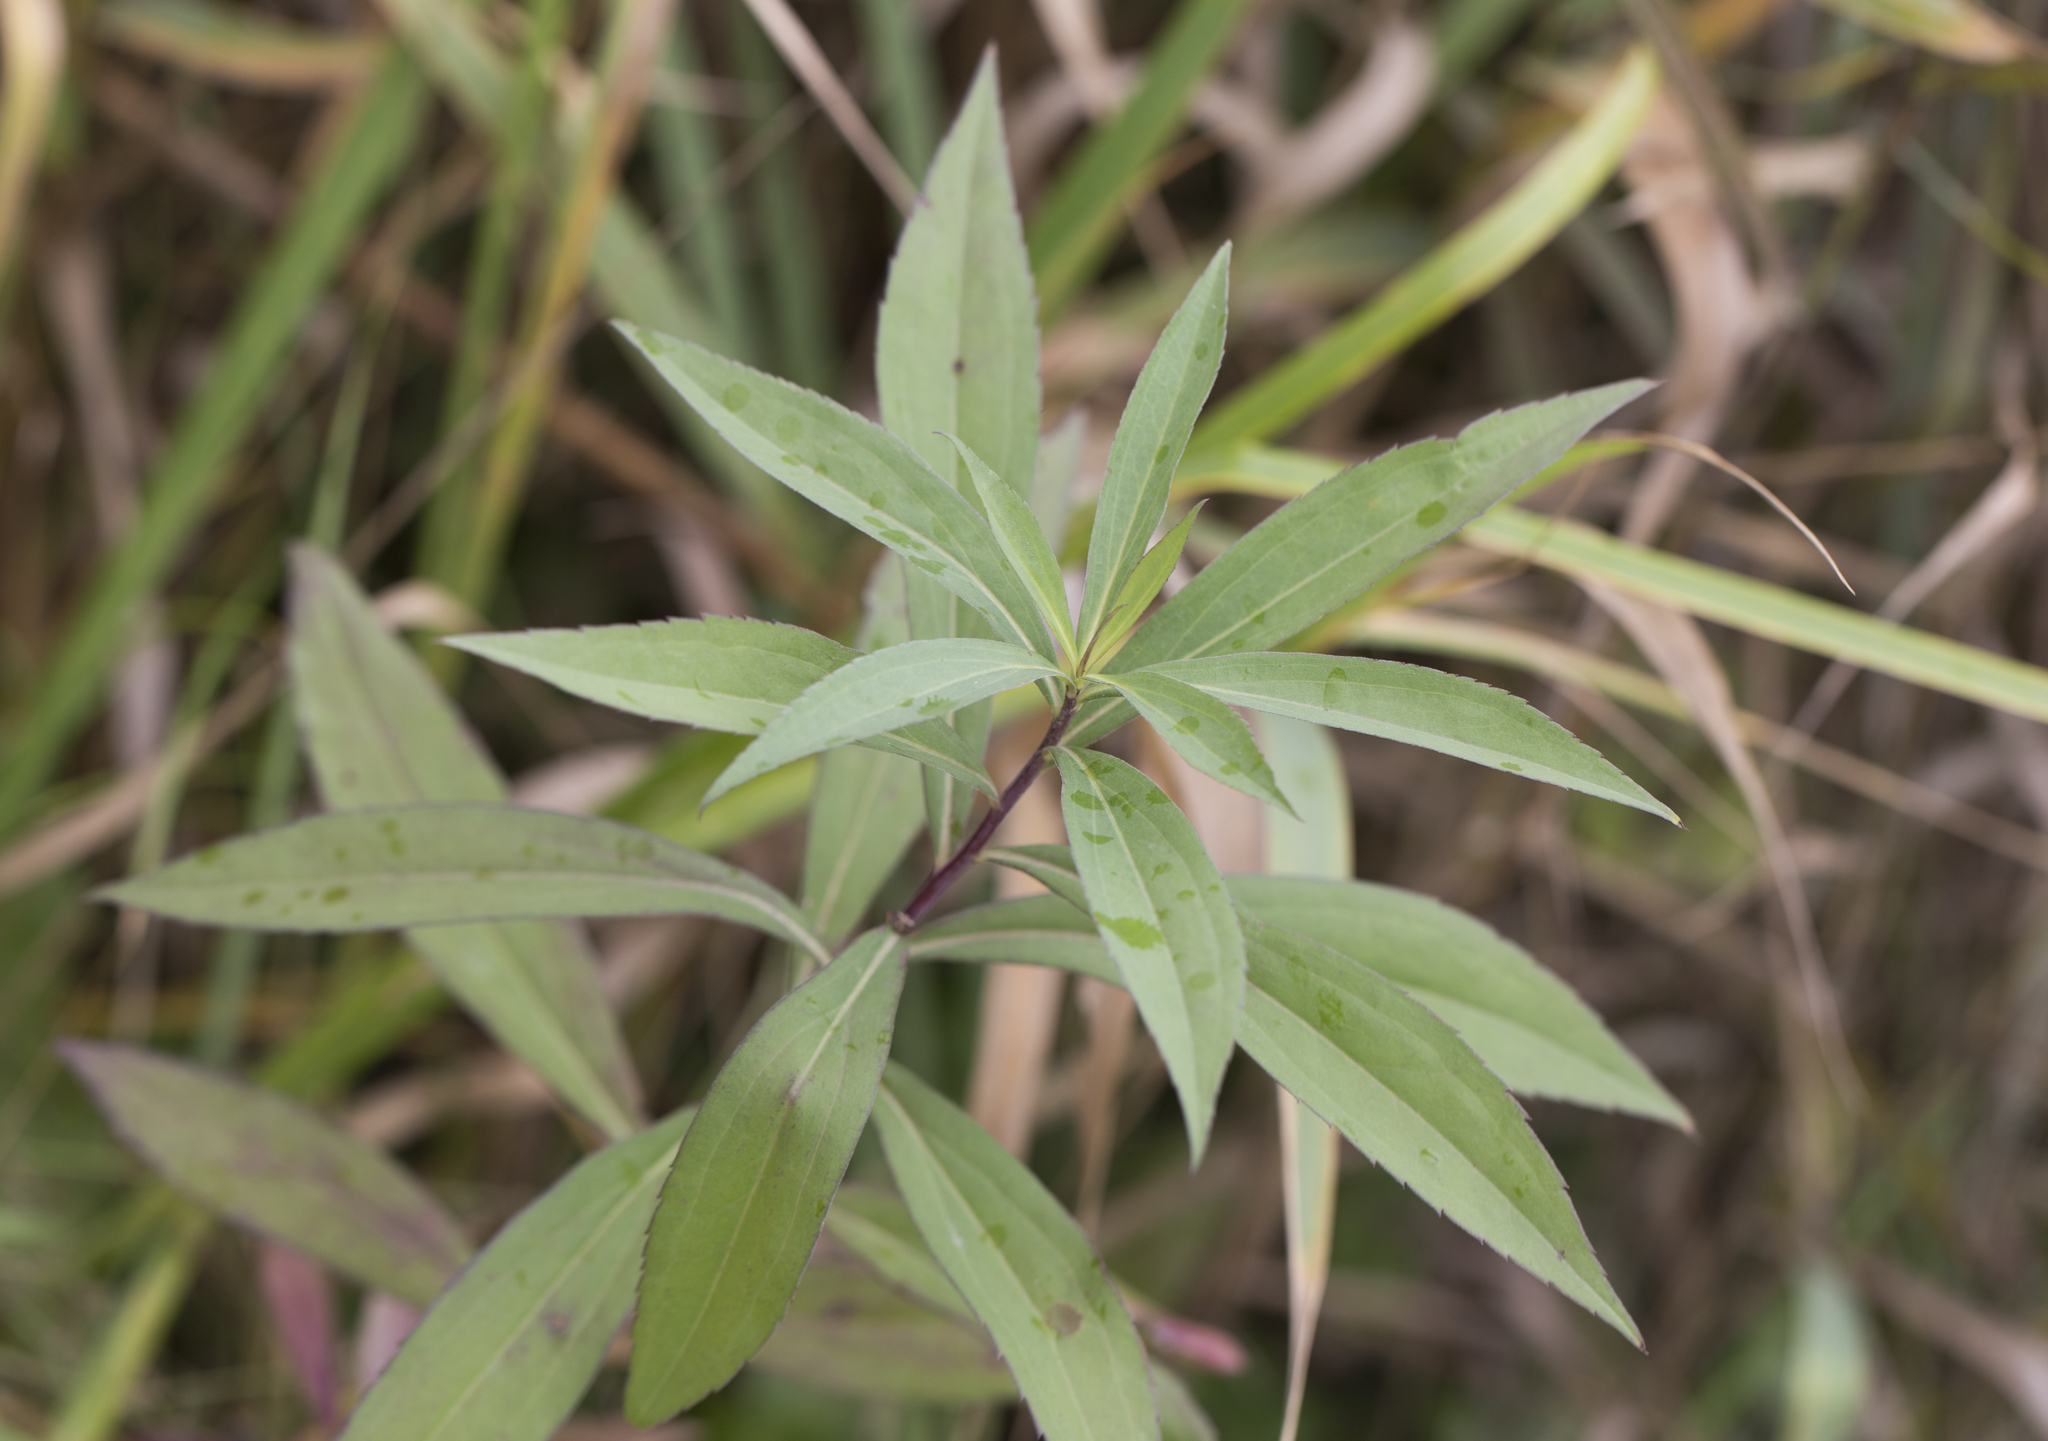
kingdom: Plantae
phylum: Tracheophyta
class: Magnoliopsida
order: Asterales
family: Asteraceae
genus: Solidago
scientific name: Solidago gigantea
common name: Giant goldenrod
